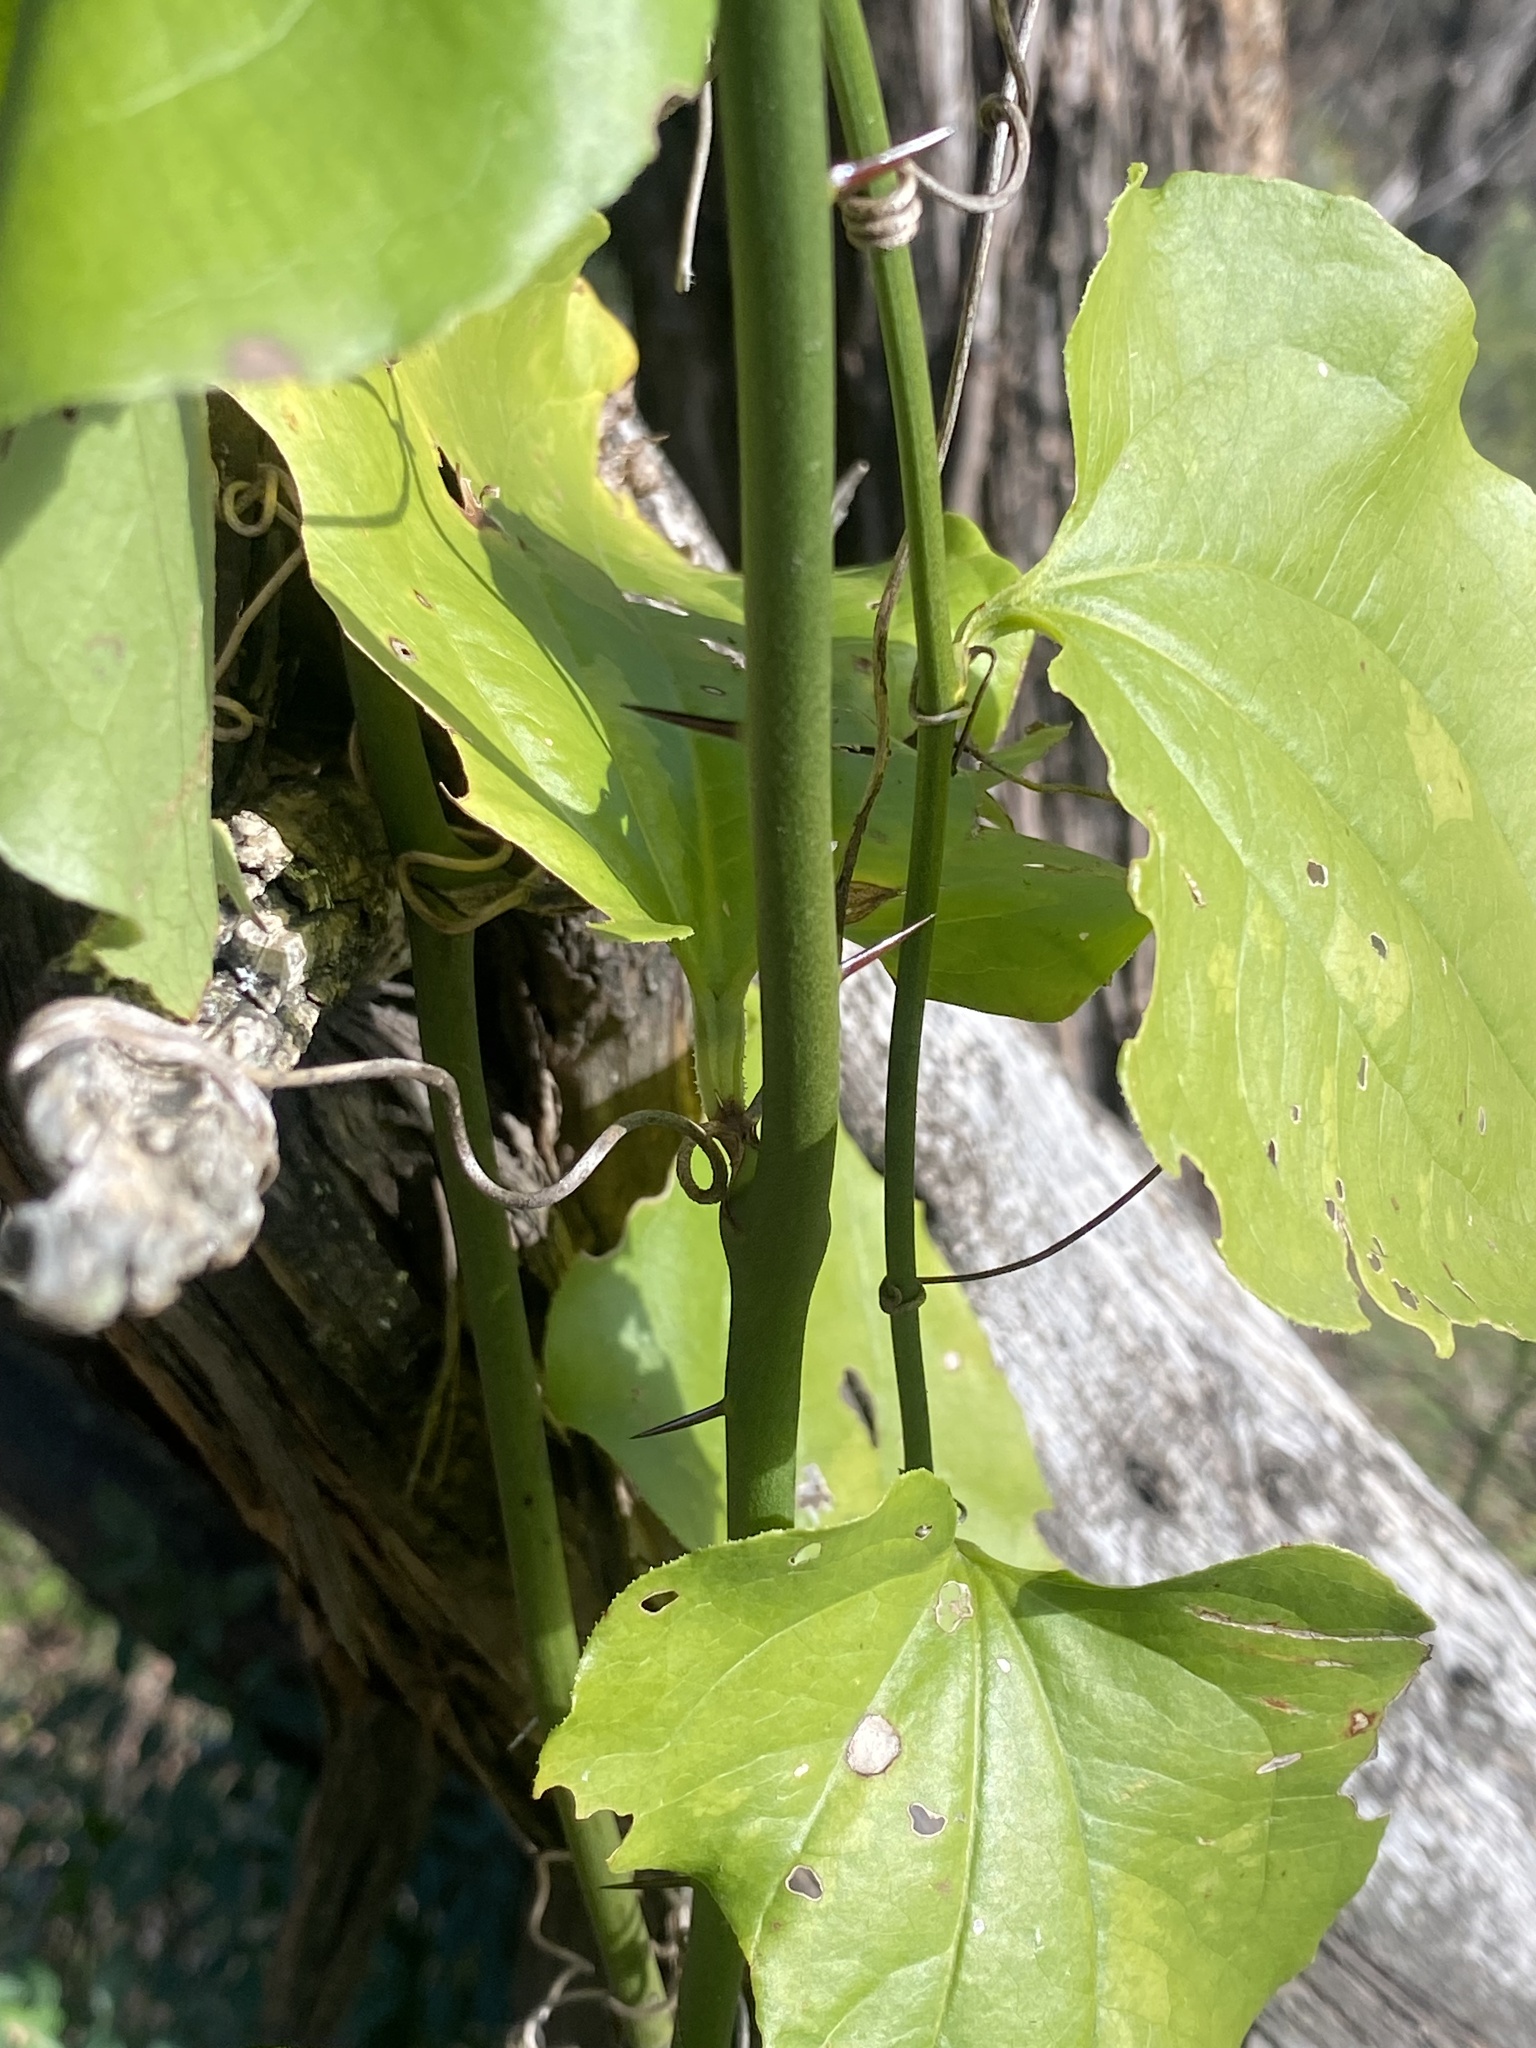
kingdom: Plantae
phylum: Tracheophyta
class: Liliopsida
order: Liliales
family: Smilacaceae
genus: Smilax
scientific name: Smilax tamnoides
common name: Hellfetter
